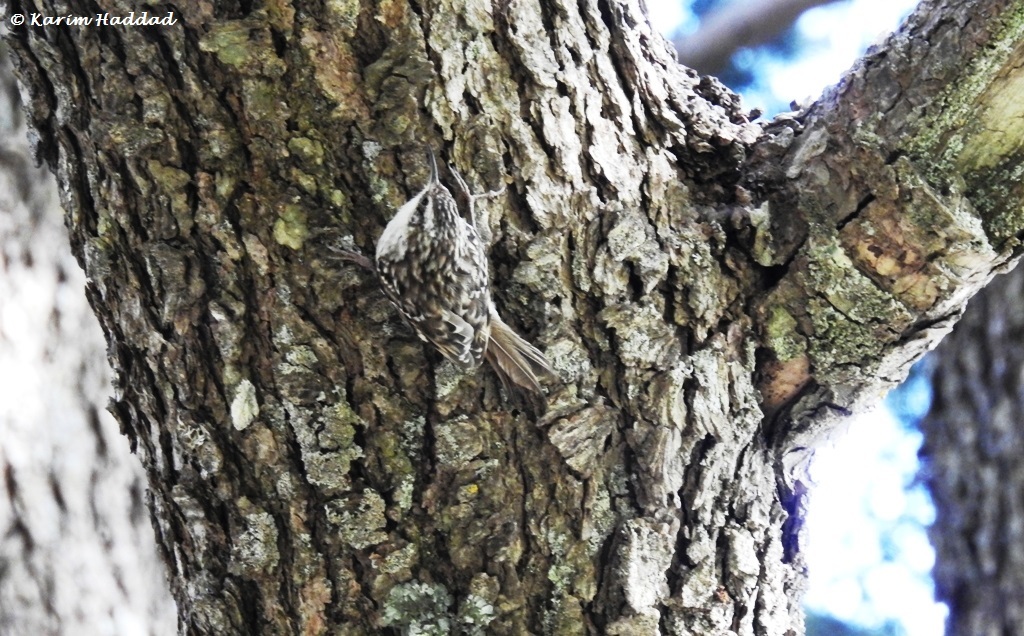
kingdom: Animalia
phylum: Chordata
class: Aves
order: Passeriformes
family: Certhiidae
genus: Certhia
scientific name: Certhia brachydactyla
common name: Short-toed treecreeper
